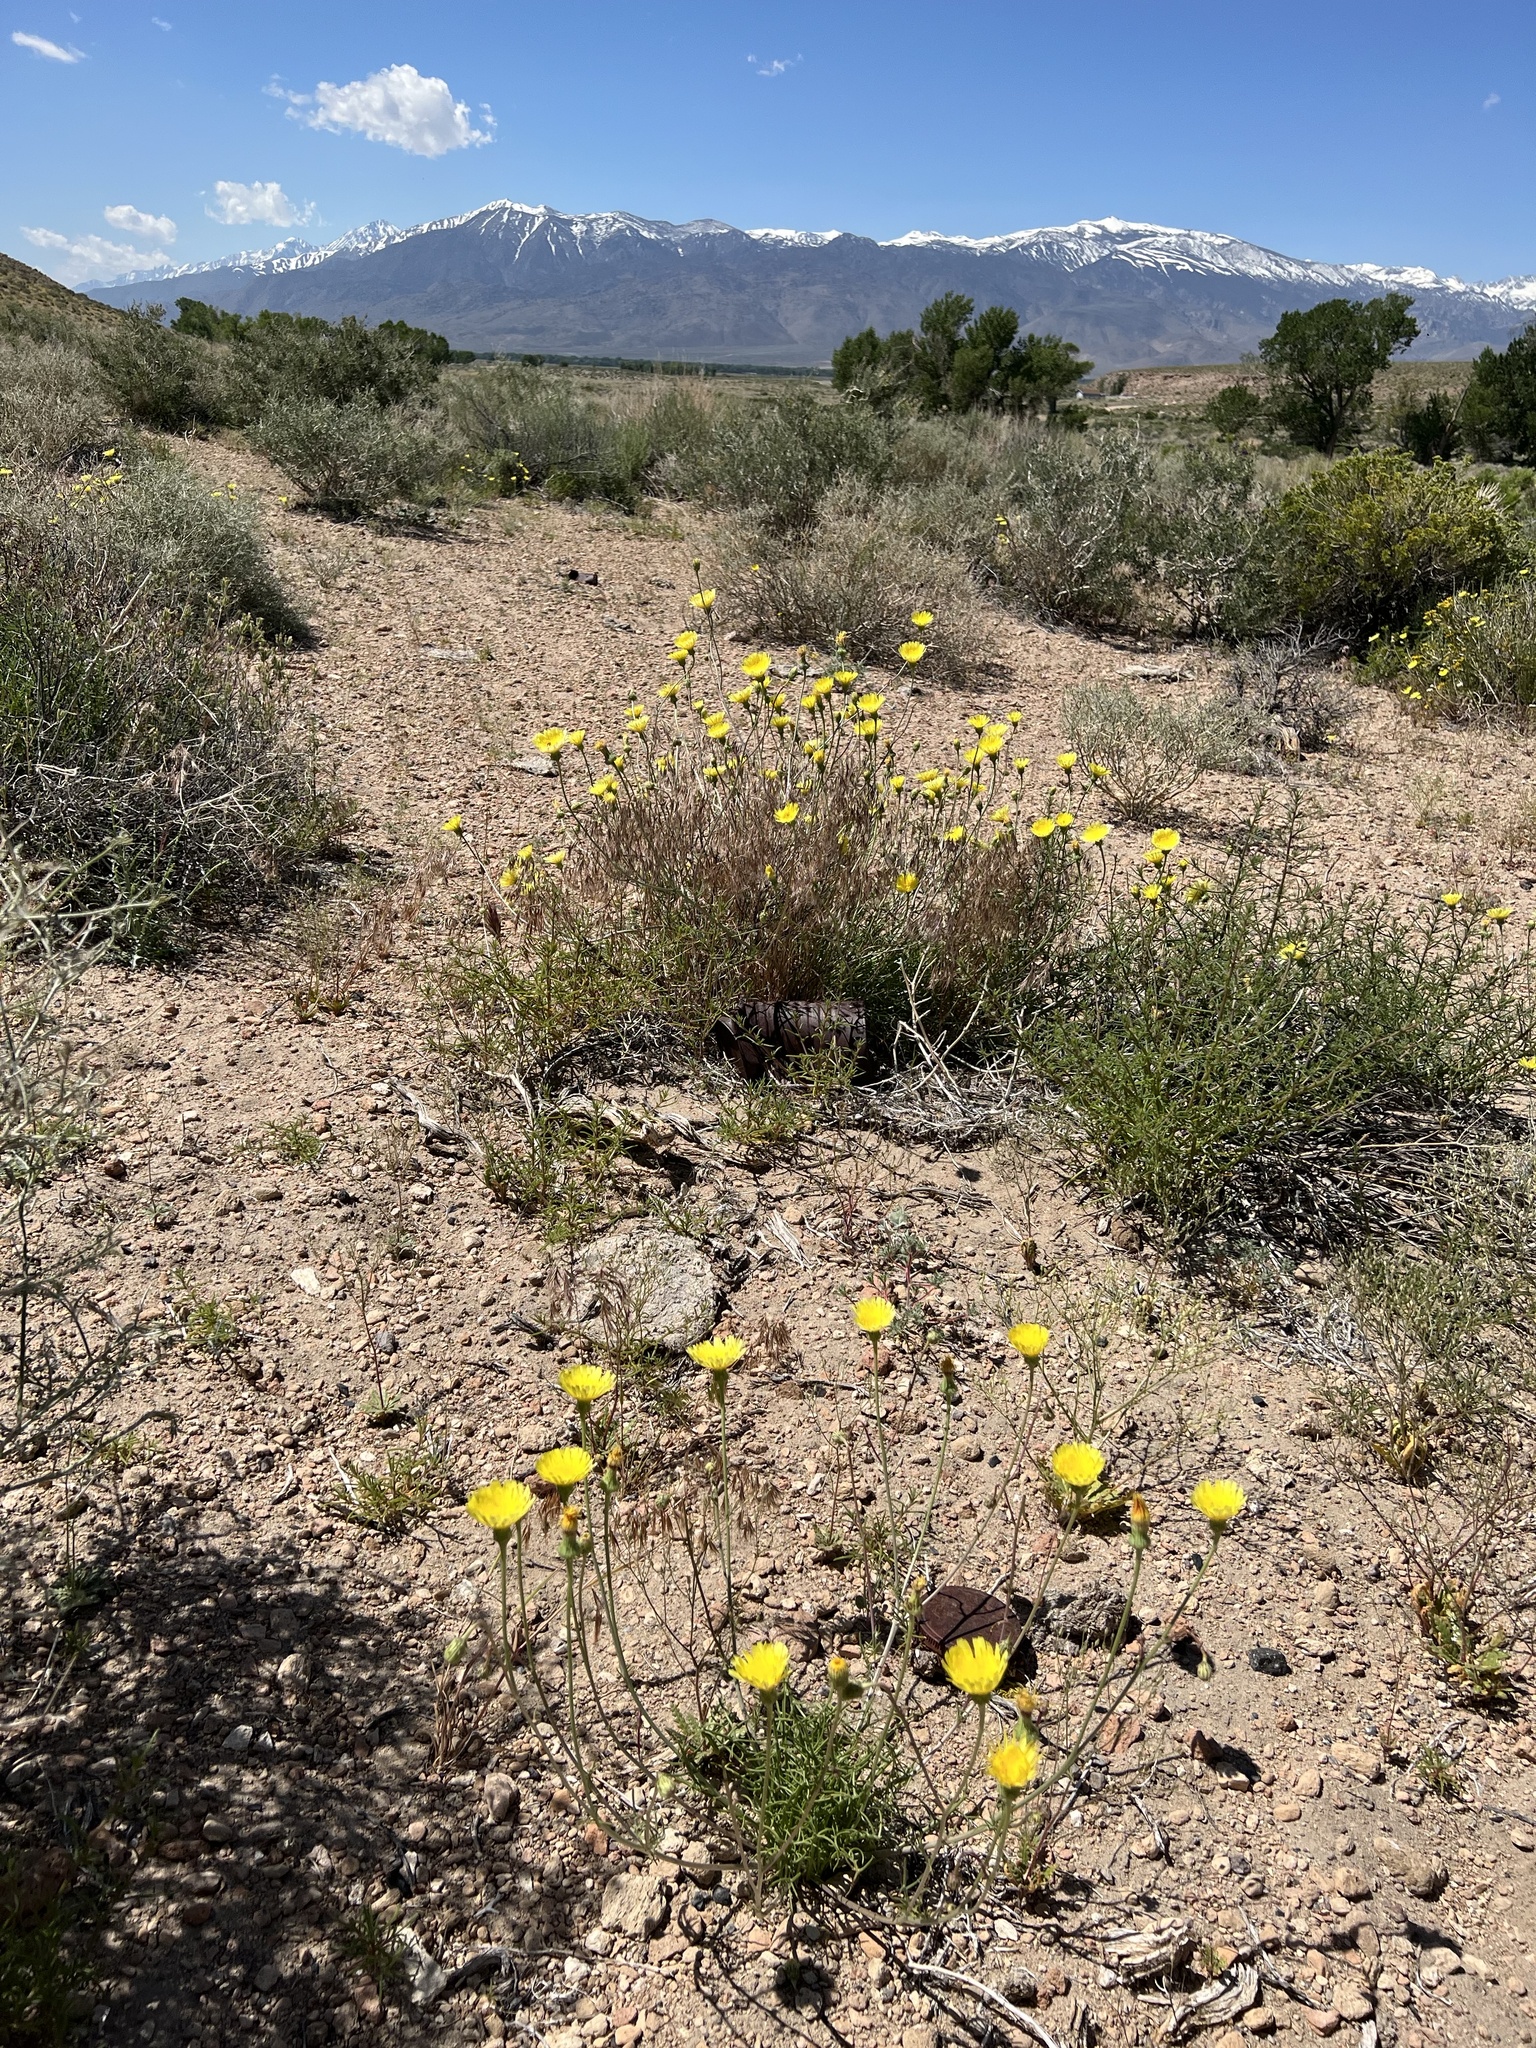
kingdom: Plantae
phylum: Tracheophyta
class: Magnoliopsida
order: Asterales
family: Asteraceae
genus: Malacothrix
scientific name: Malacothrix glabrata
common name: Smooth desert-dandelion
